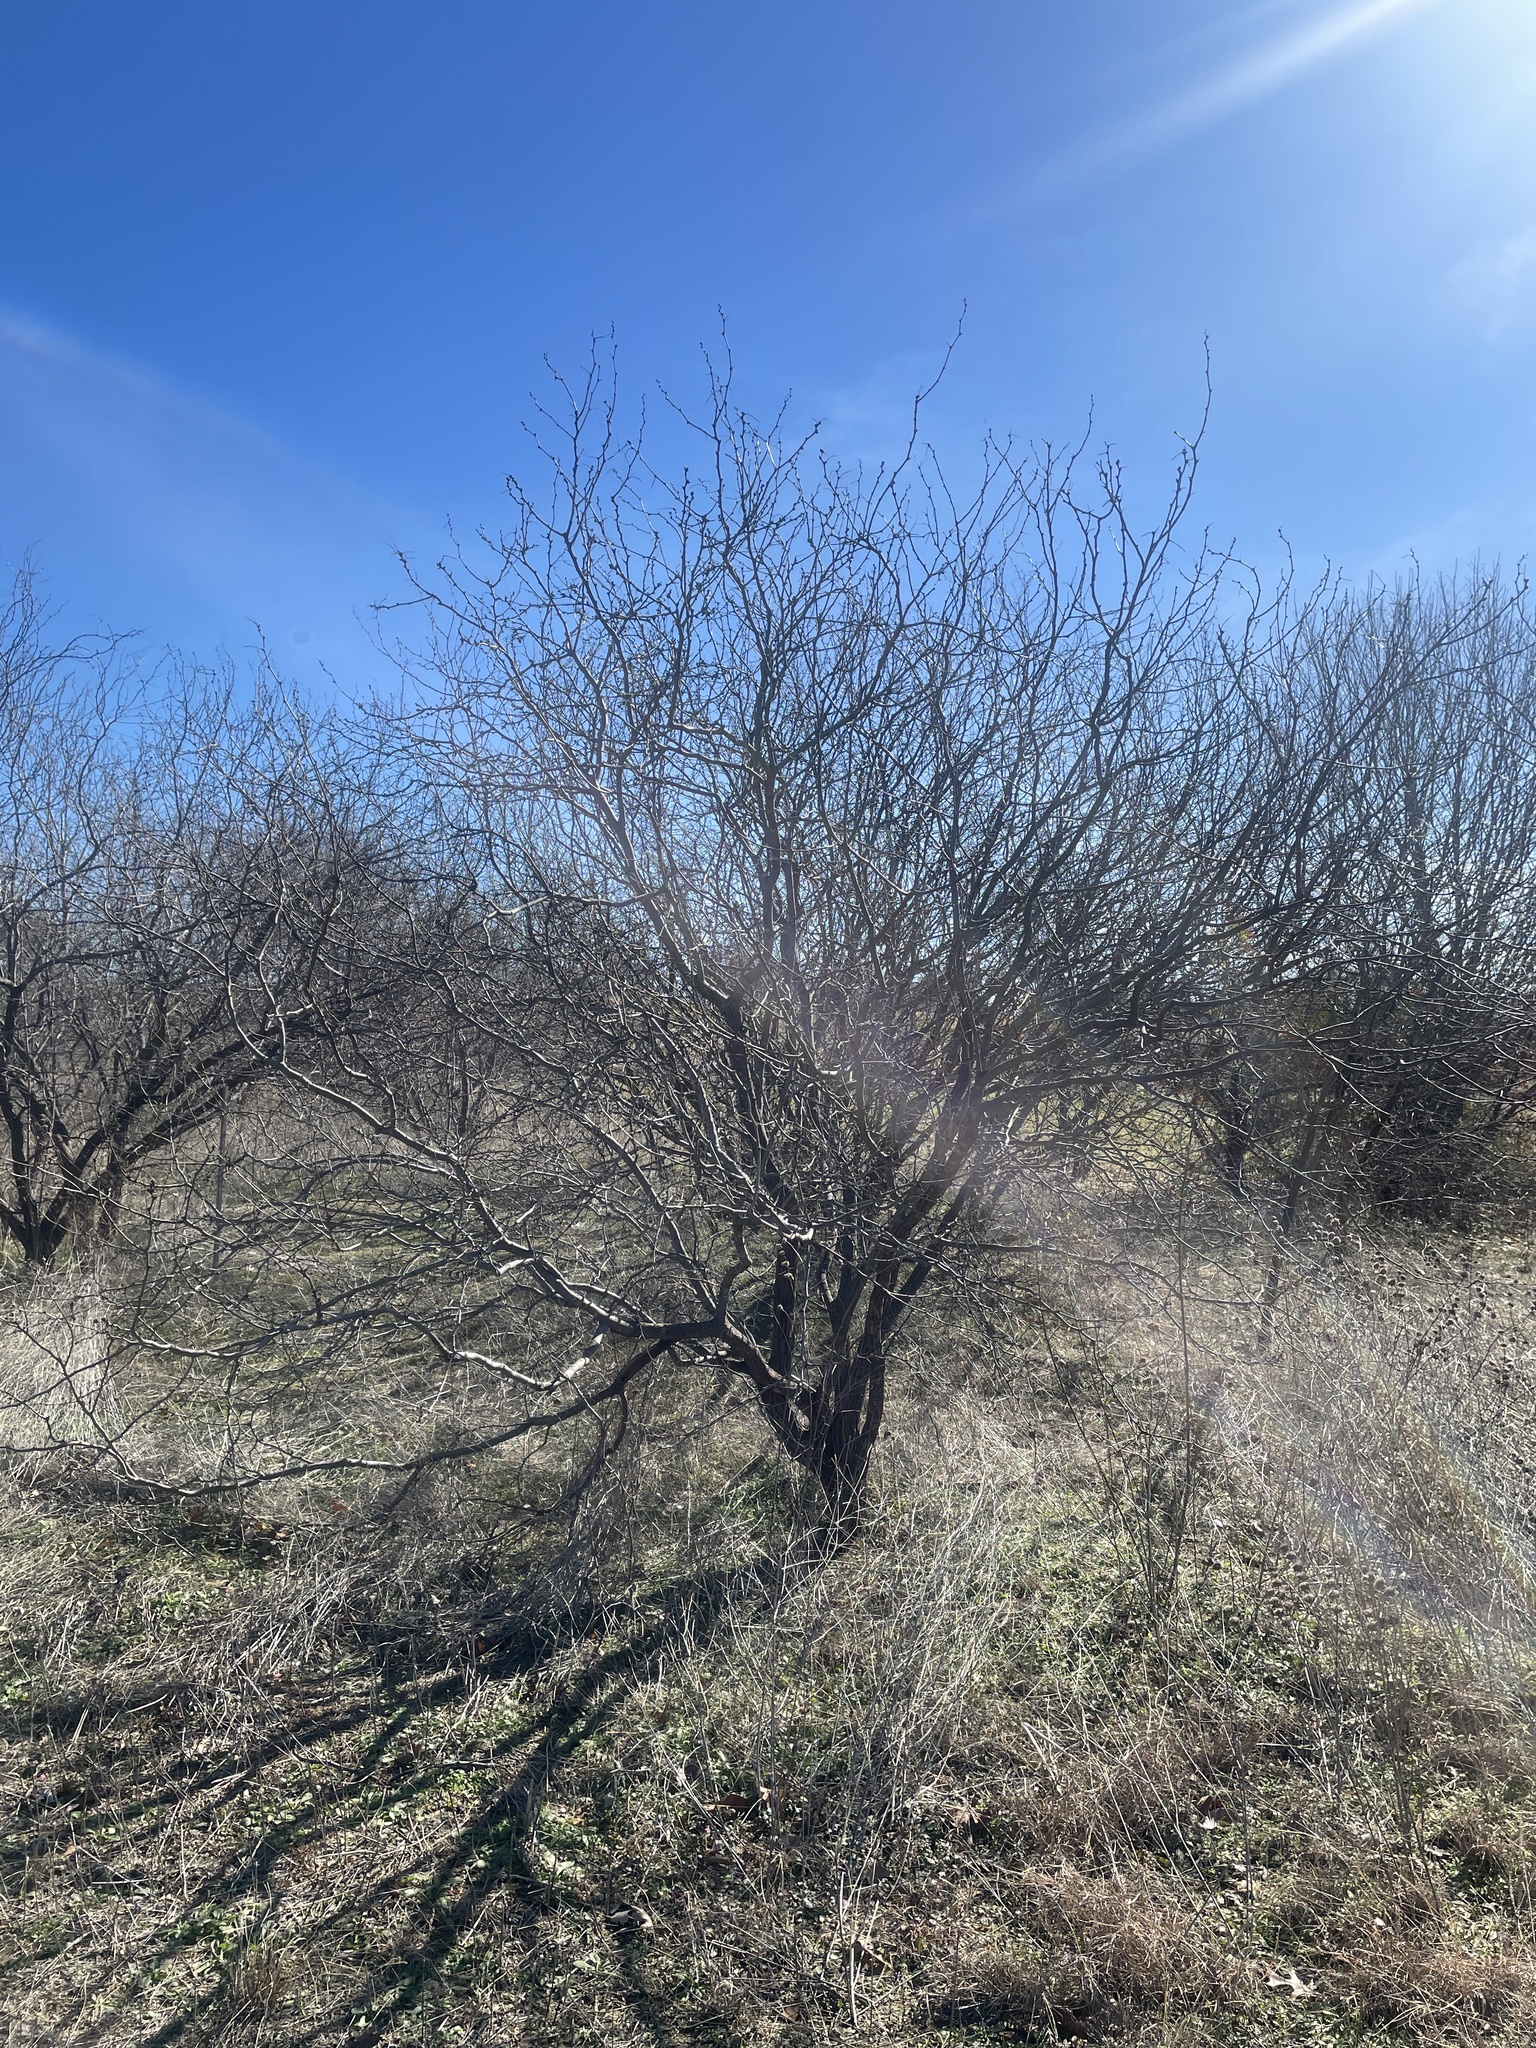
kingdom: Plantae
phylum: Tracheophyta
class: Magnoliopsida
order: Fabales
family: Fabaceae
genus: Prosopis
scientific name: Prosopis glandulosa
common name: Honey mesquite
